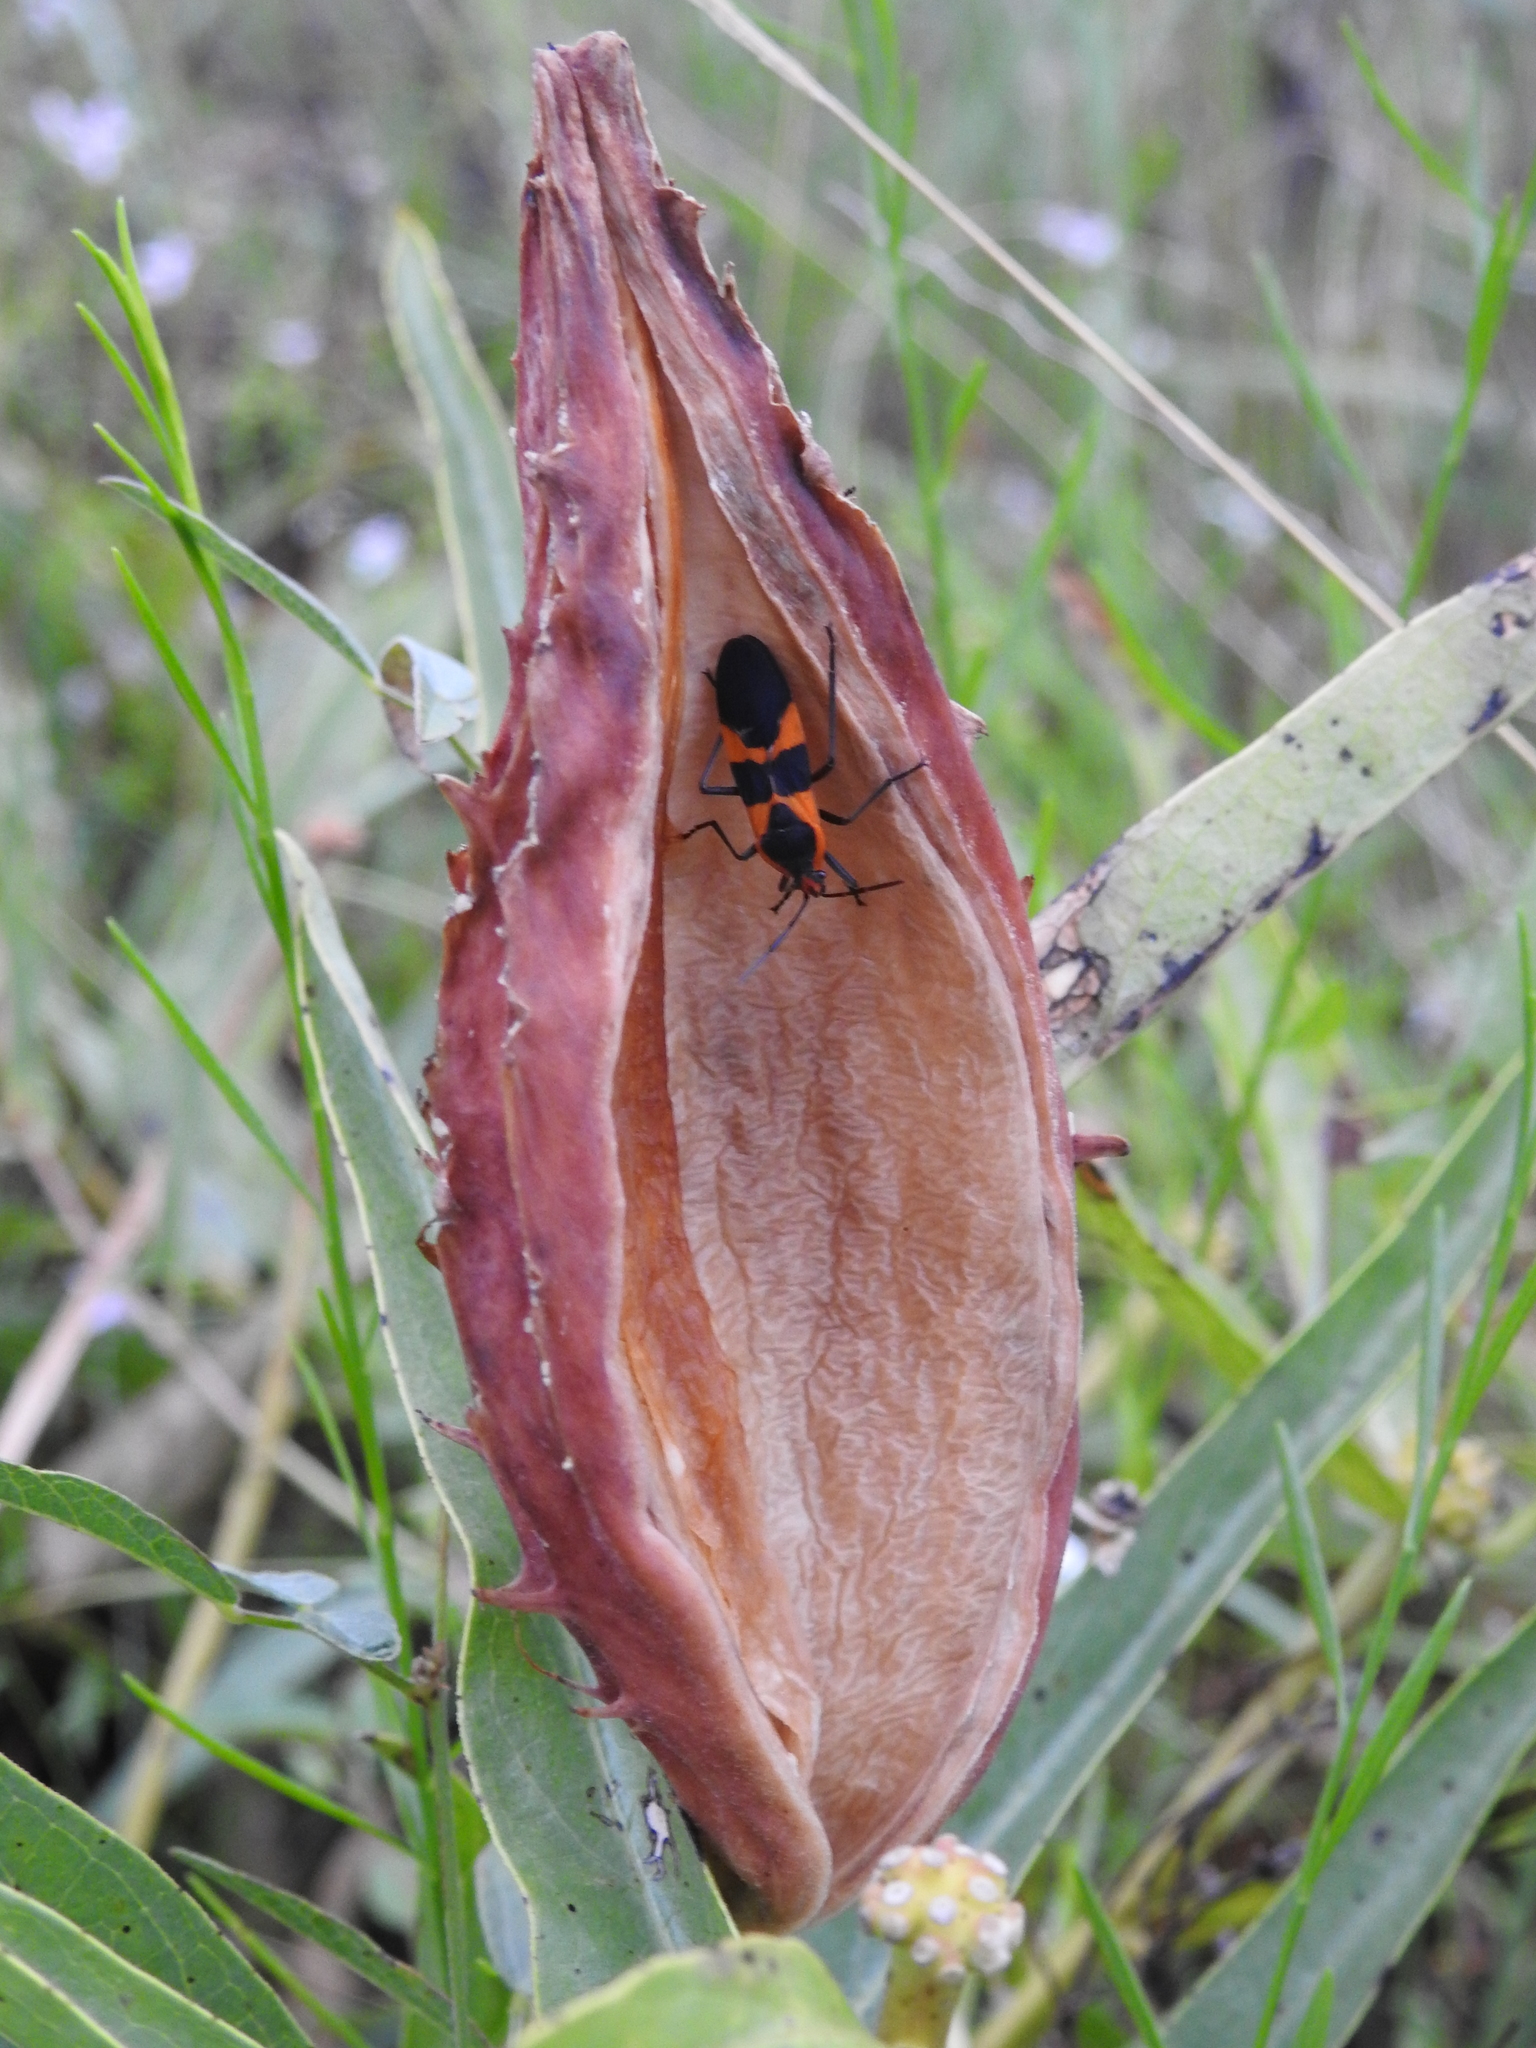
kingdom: Animalia
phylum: Arthropoda
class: Insecta
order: Hemiptera
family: Lygaeidae
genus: Oncopeltus
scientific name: Oncopeltus fasciatus
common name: Large milkweed bug
